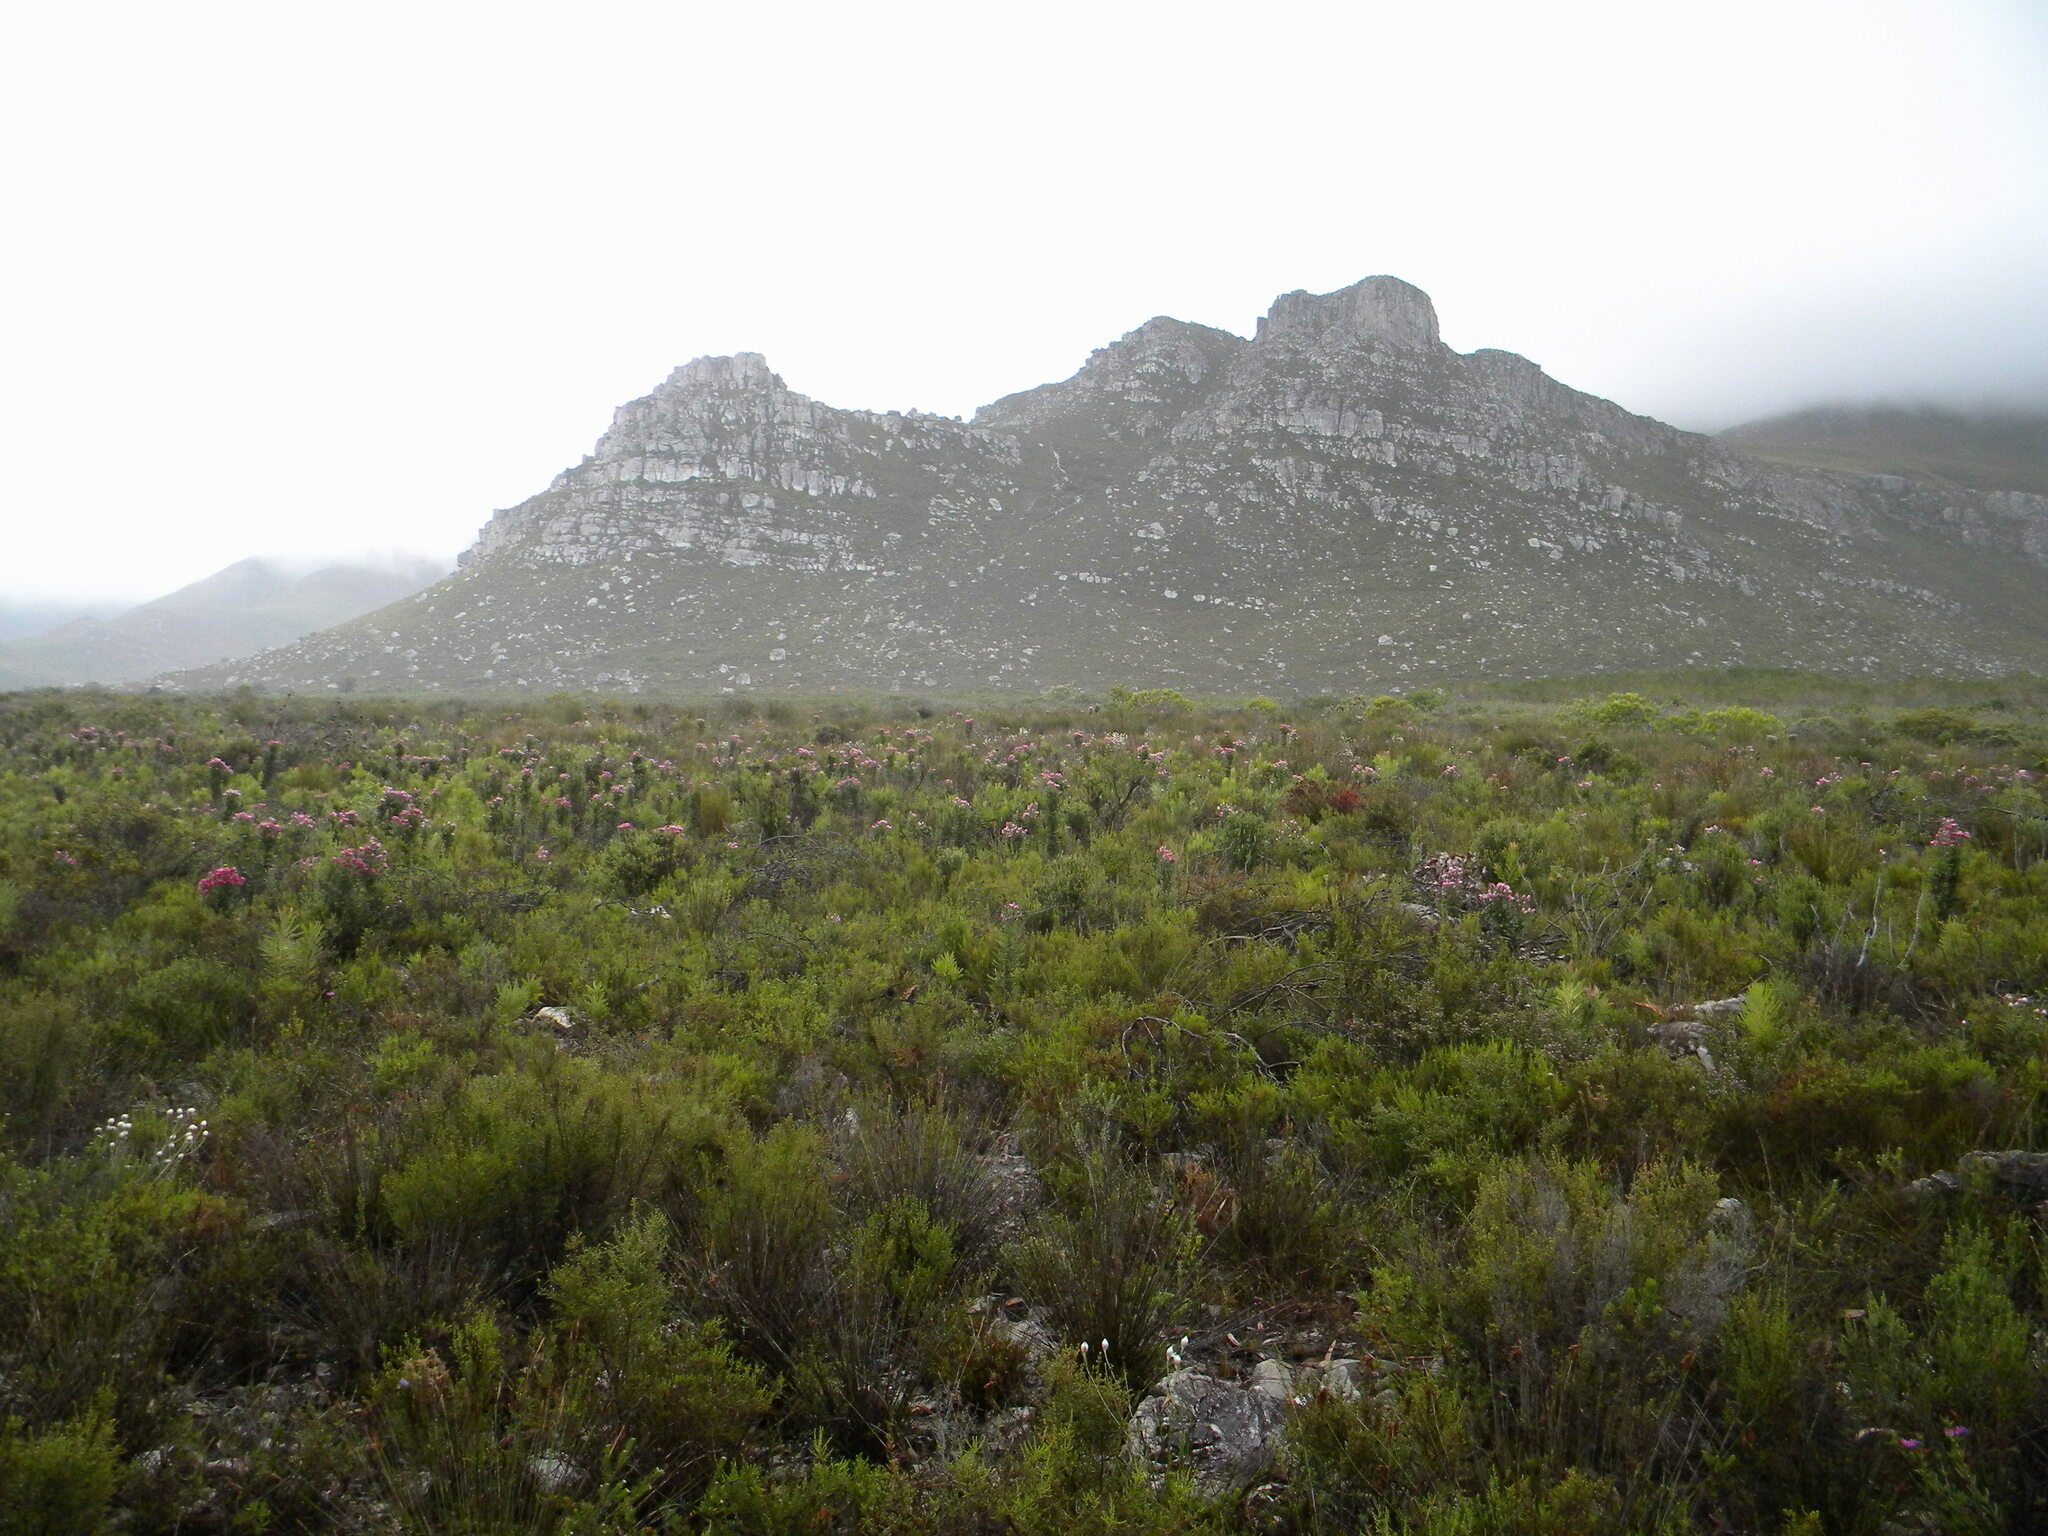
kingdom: Plantae
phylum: Tracheophyta
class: Magnoliopsida
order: Asterales
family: Asteraceae
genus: Phaenocoma
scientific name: Phaenocoma prolifera
